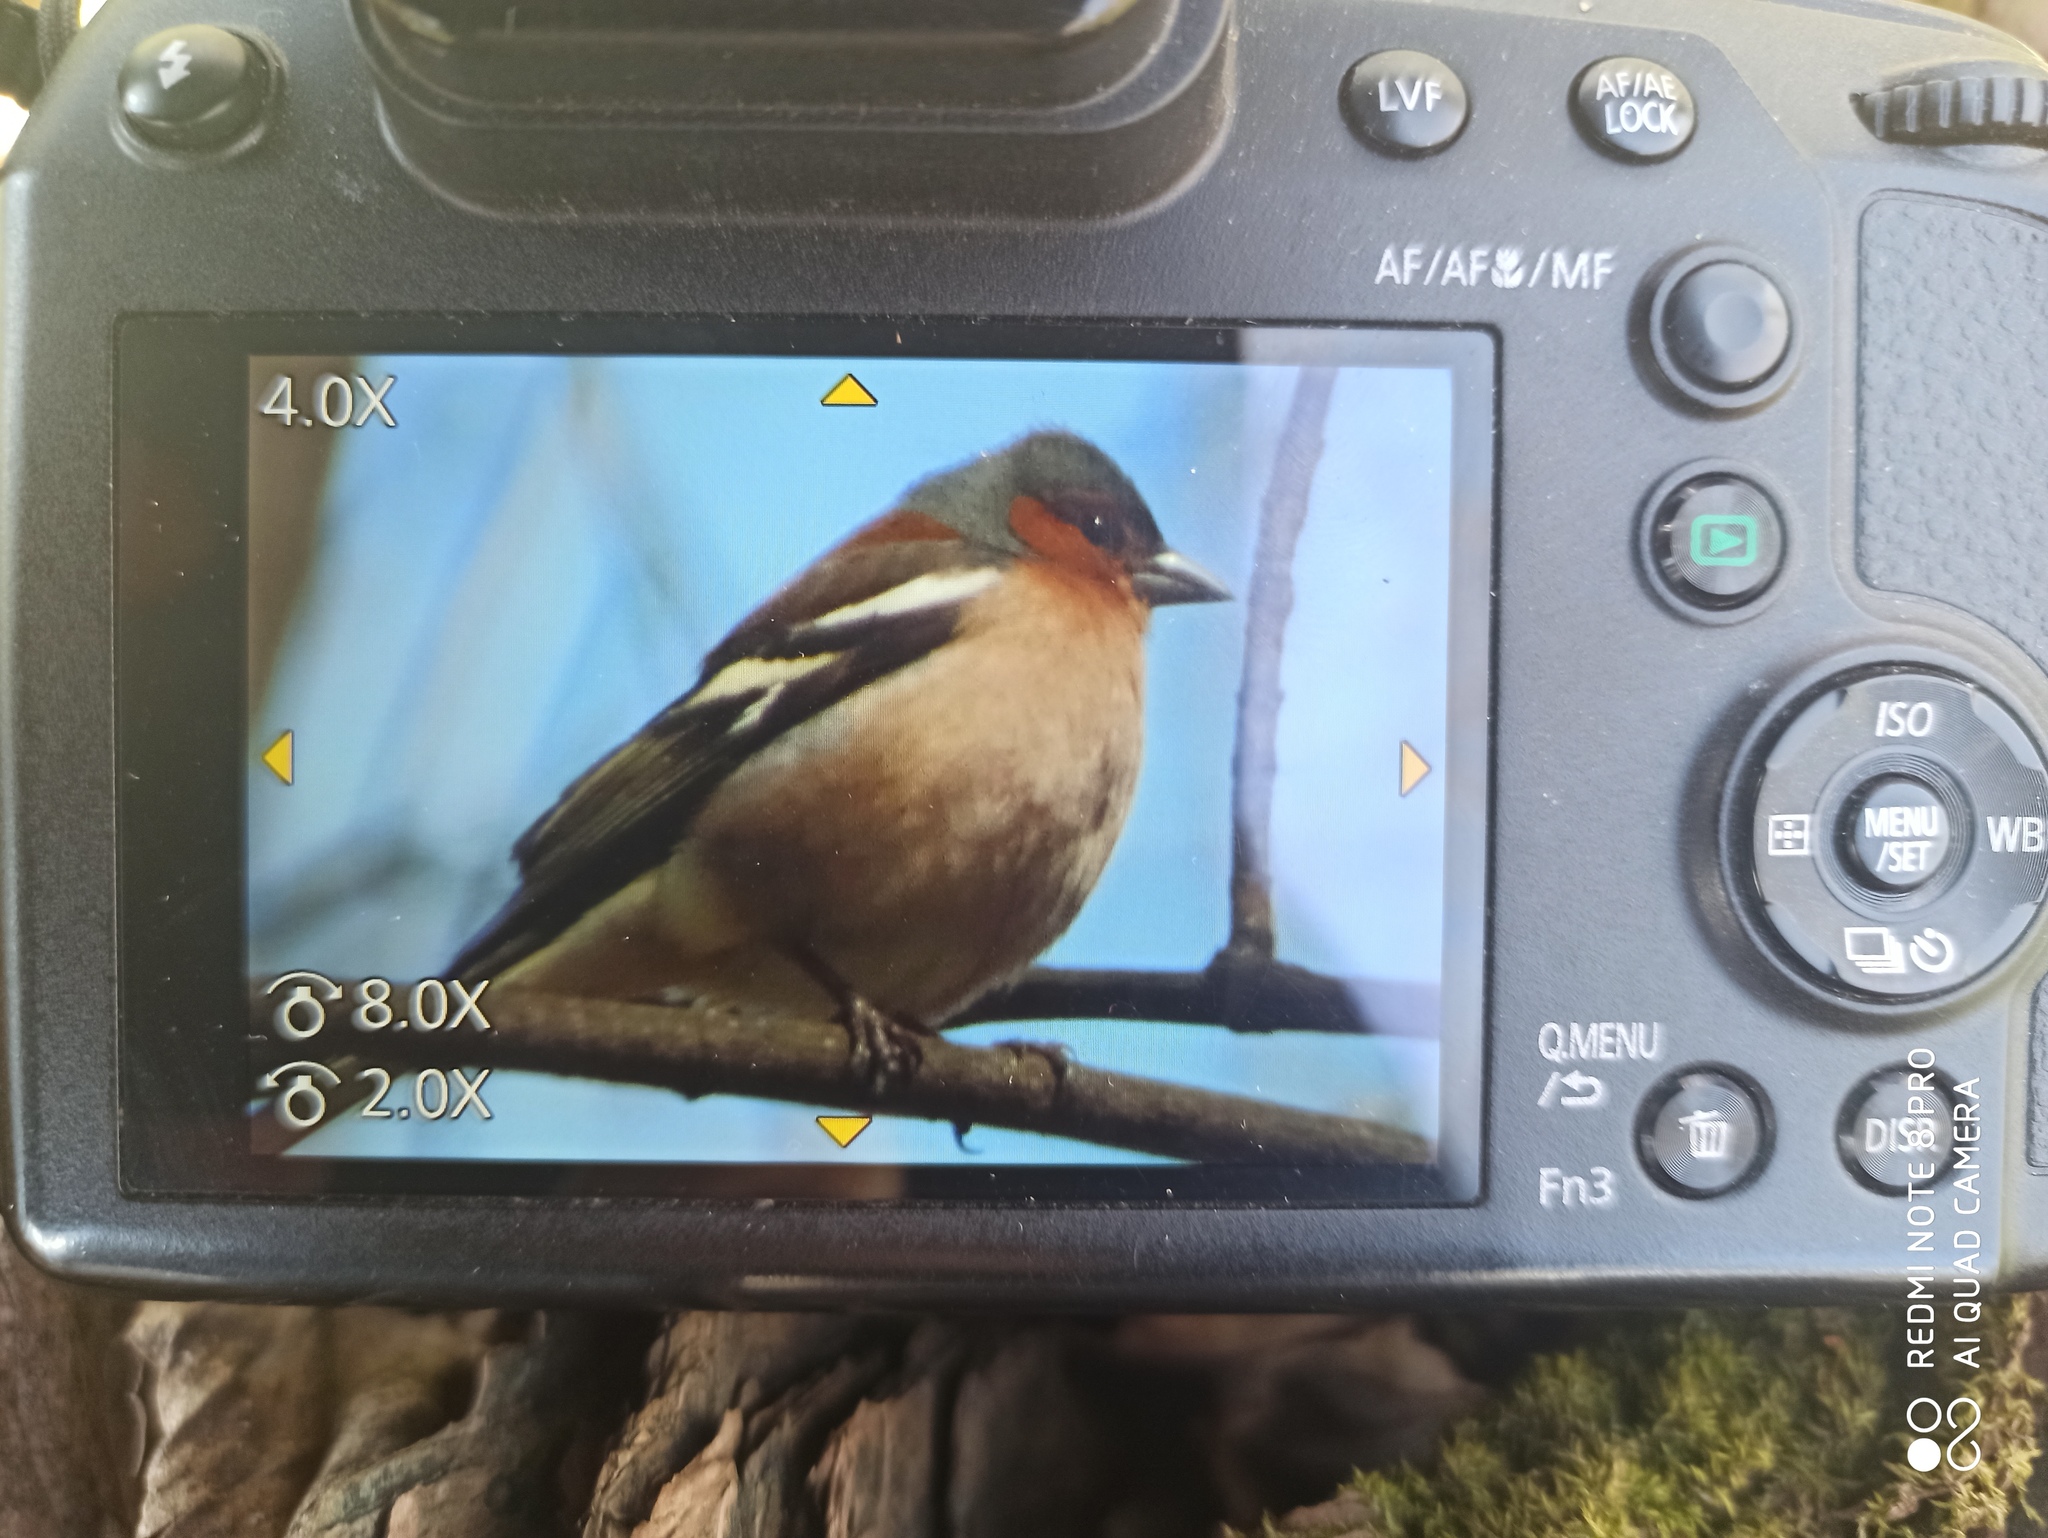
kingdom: Animalia
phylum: Chordata
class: Aves
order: Passeriformes
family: Fringillidae
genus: Fringilla
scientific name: Fringilla coelebs
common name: Common chaffinch
